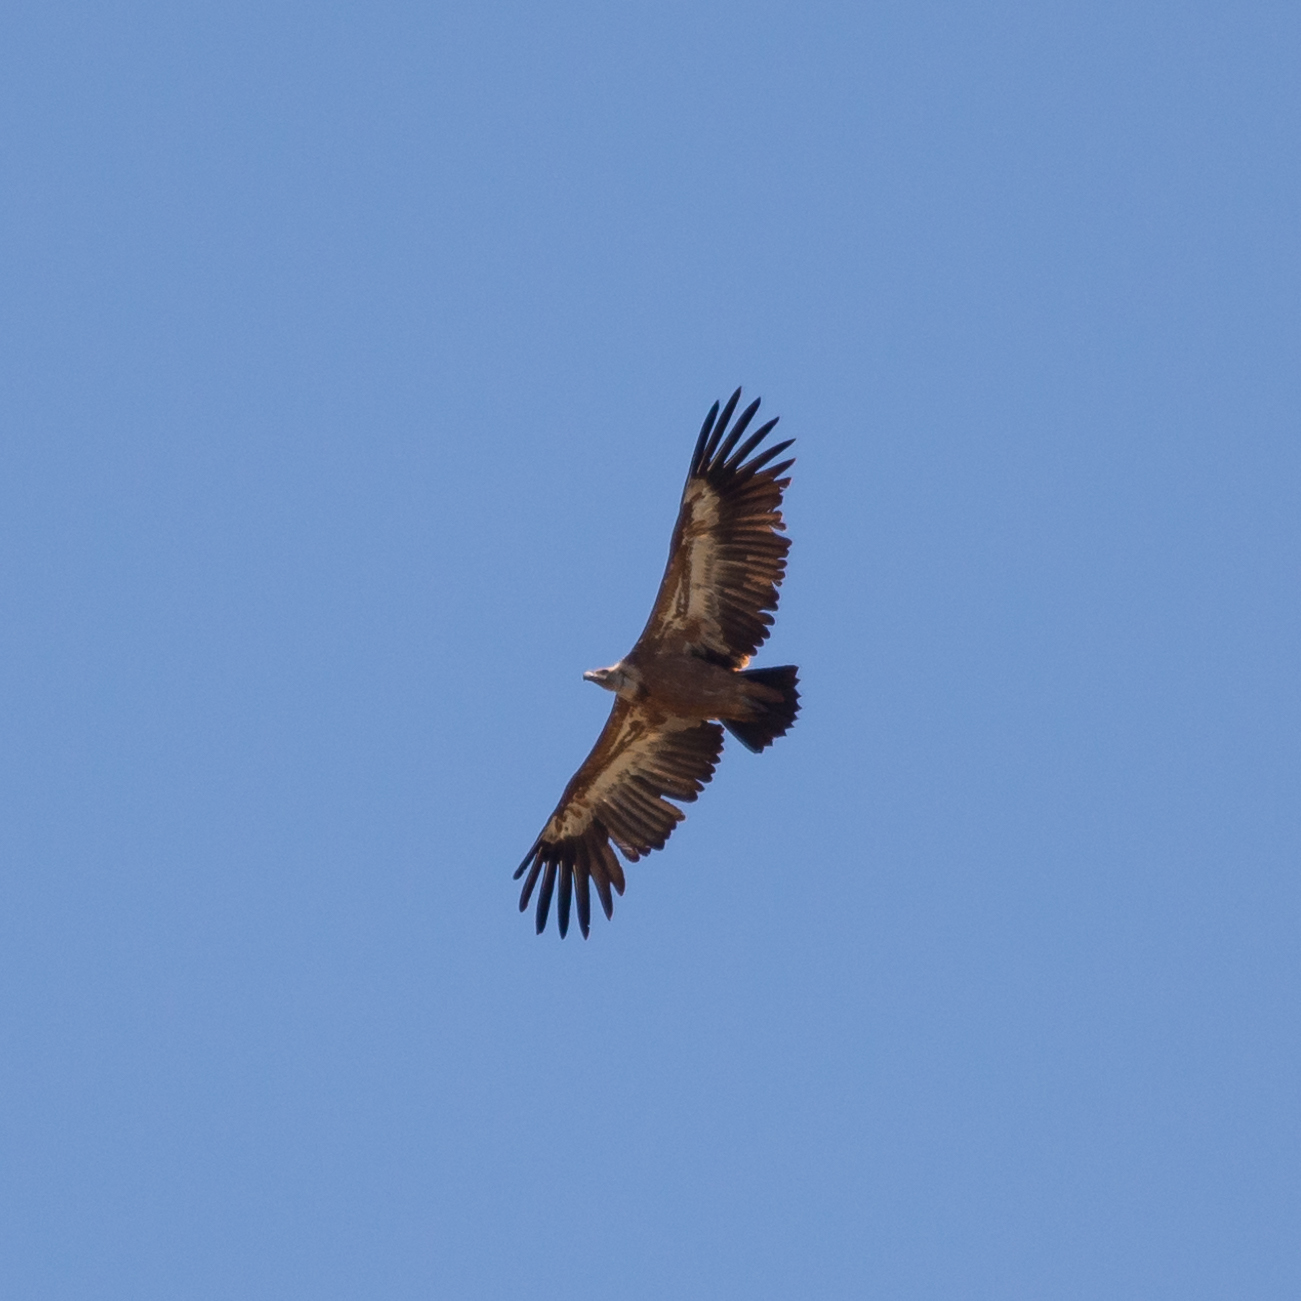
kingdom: Animalia
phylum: Chordata
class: Aves
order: Accipitriformes
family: Accipitridae
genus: Gyps
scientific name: Gyps fulvus
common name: Griffon vulture
